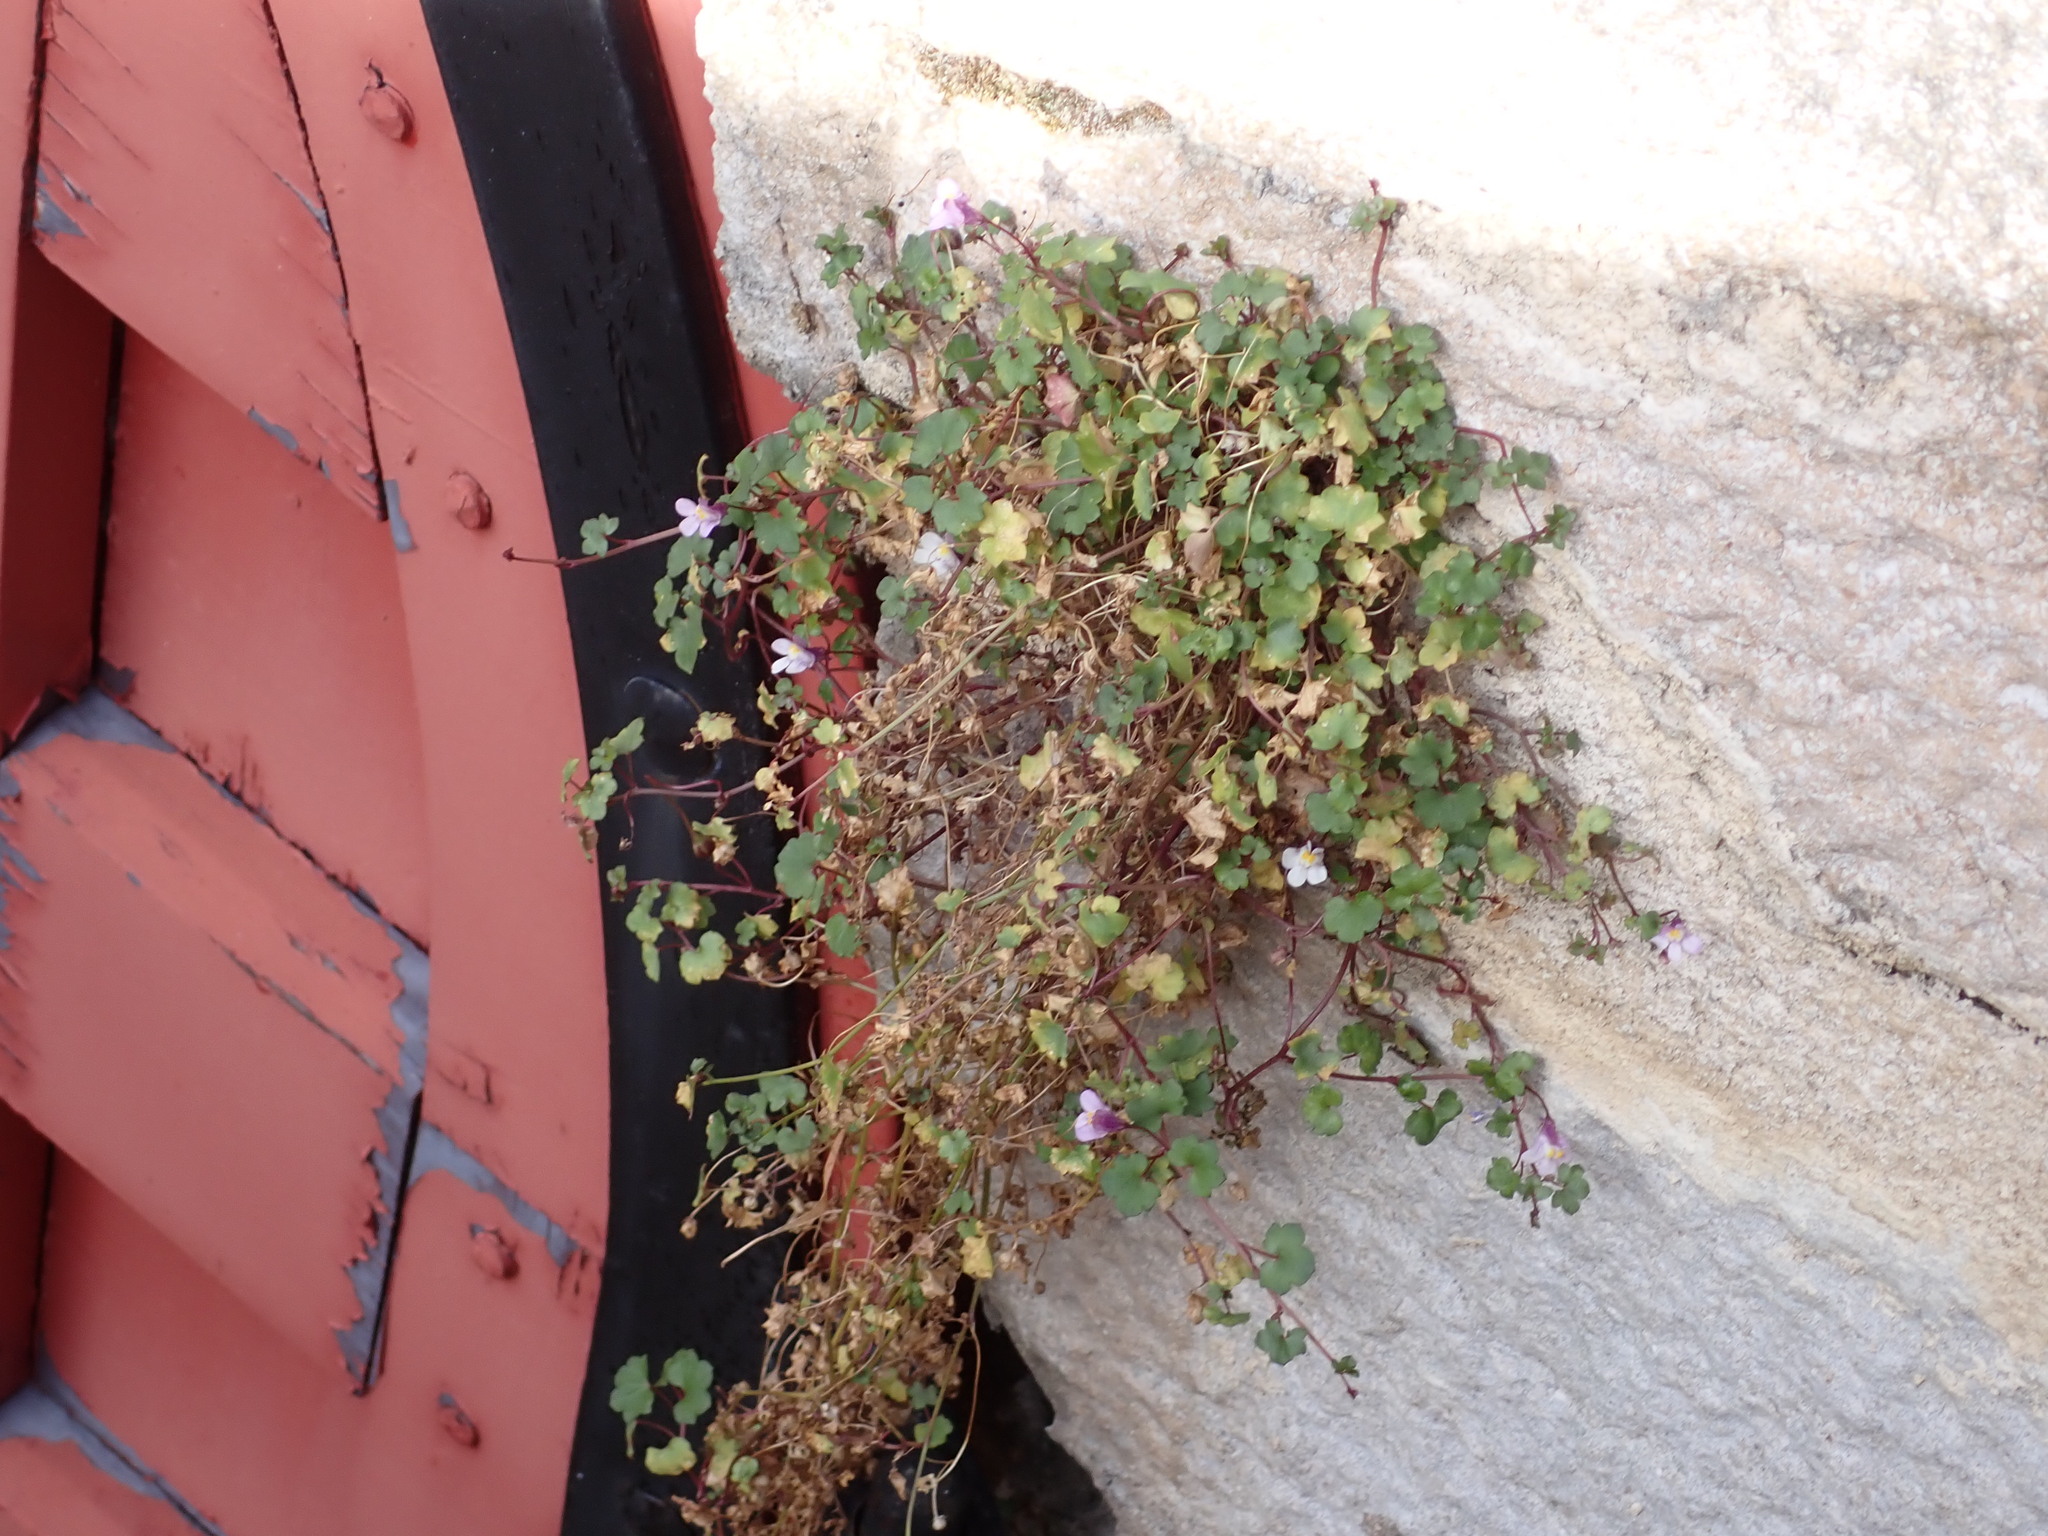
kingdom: Plantae
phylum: Tracheophyta
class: Magnoliopsida
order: Lamiales
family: Plantaginaceae
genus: Cymbalaria
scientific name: Cymbalaria muralis
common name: Ivy-leaved toadflax
